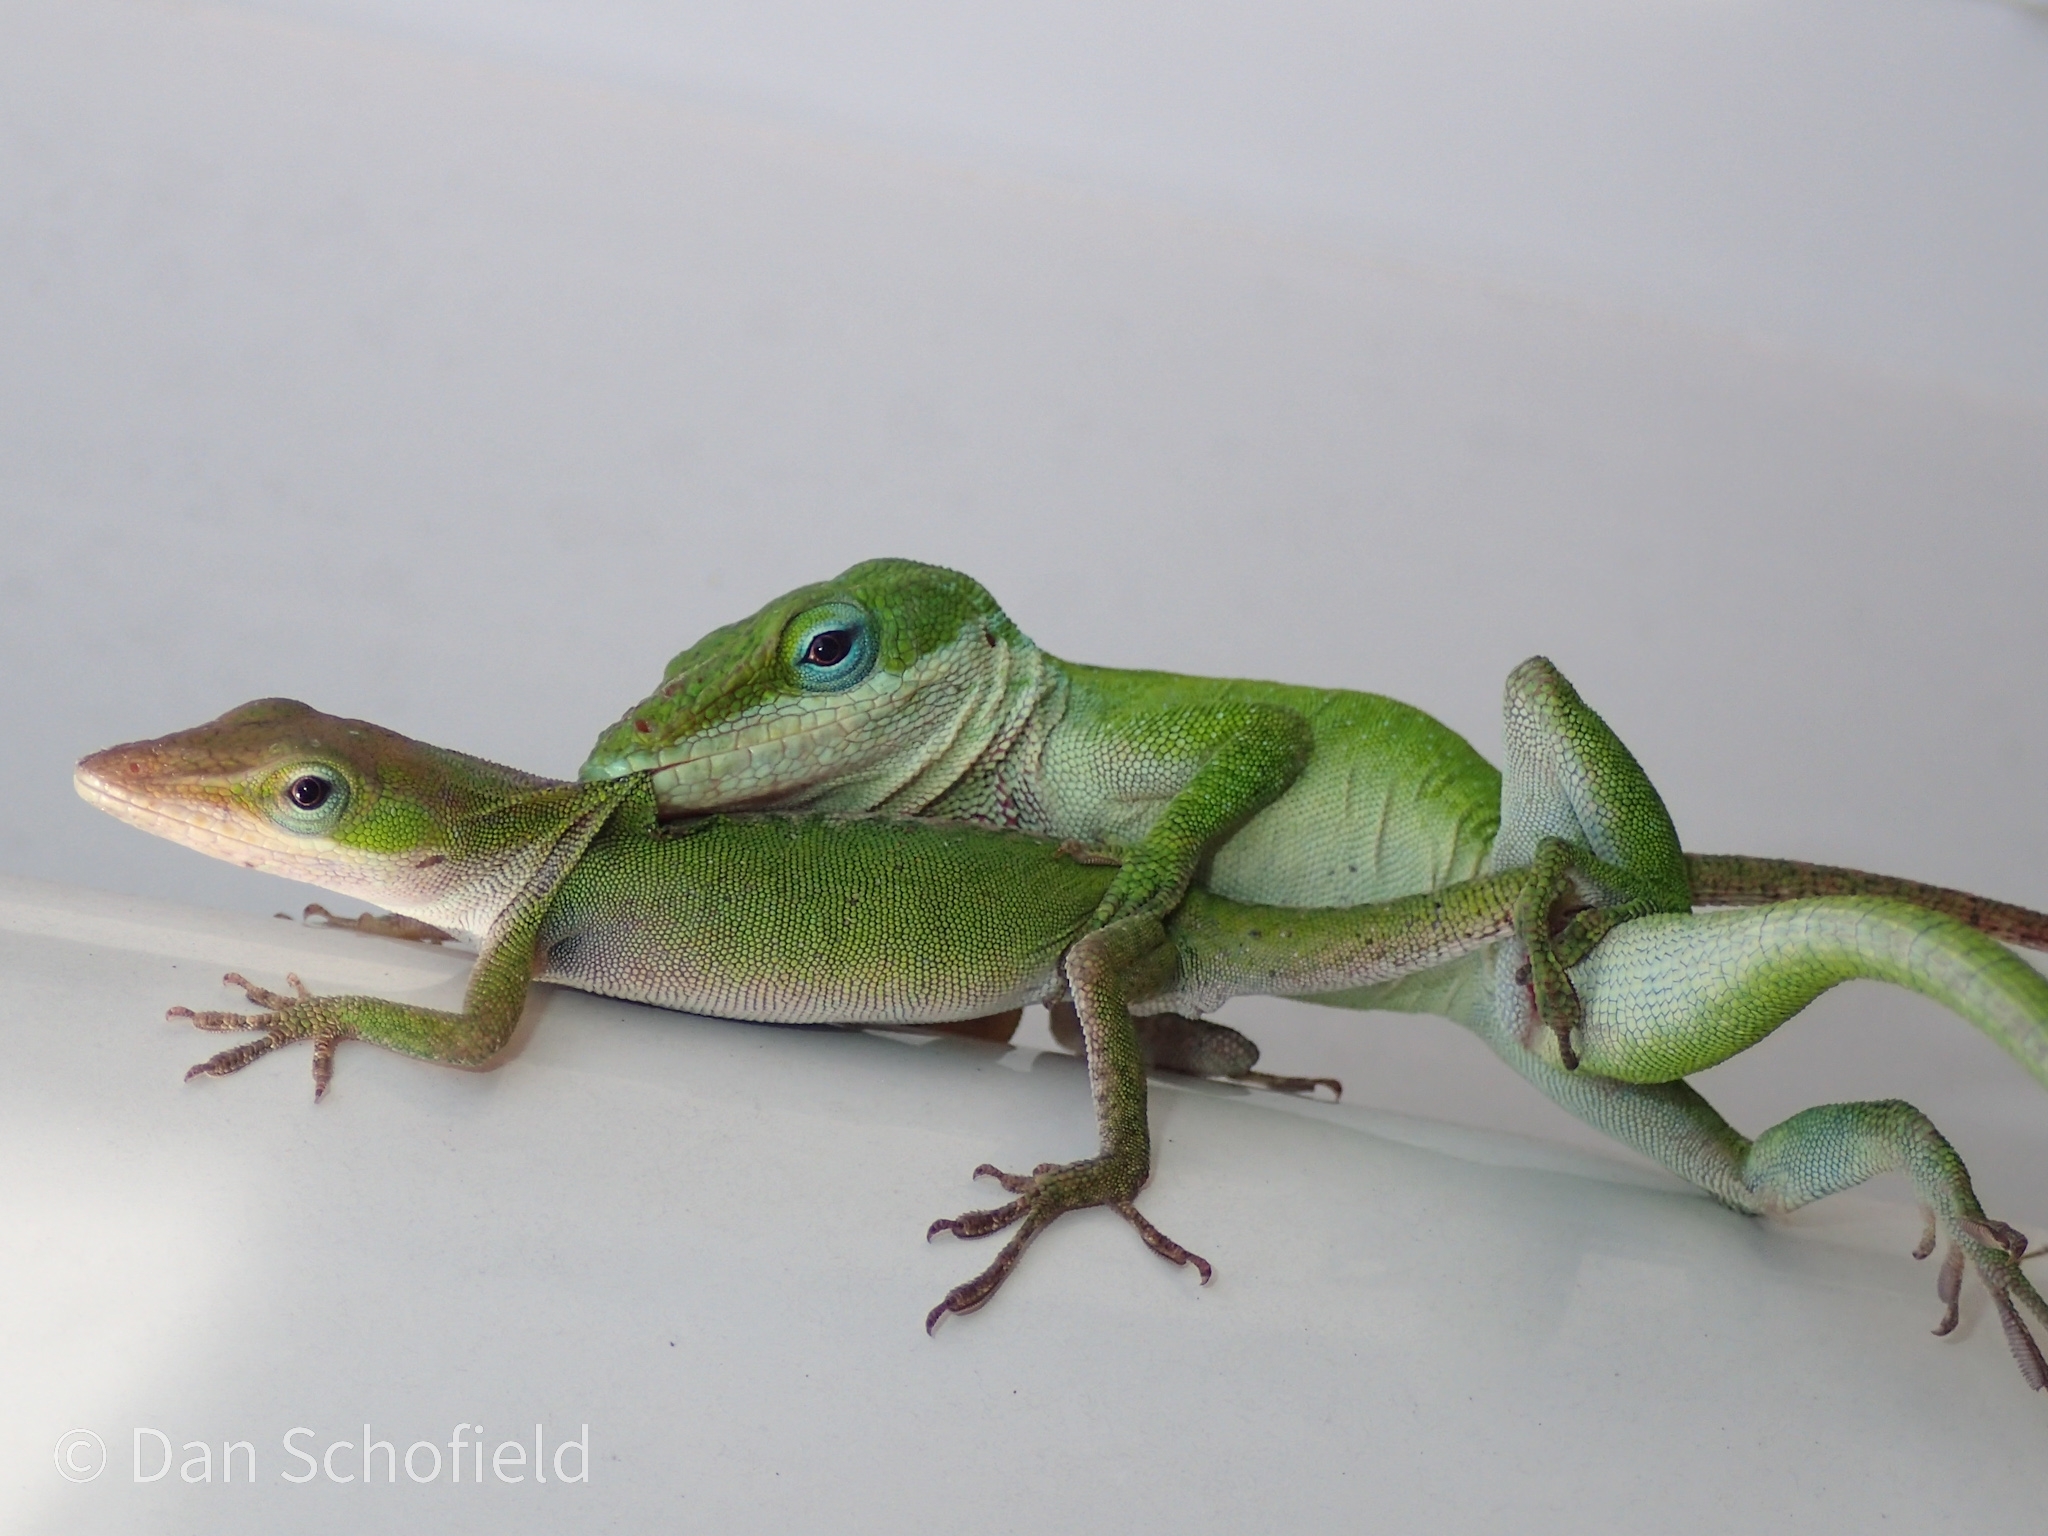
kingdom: Animalia
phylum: Chordata
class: Squamata
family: Dactyloidae
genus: Anolis
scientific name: Anolis carolinensis
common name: Green anole
